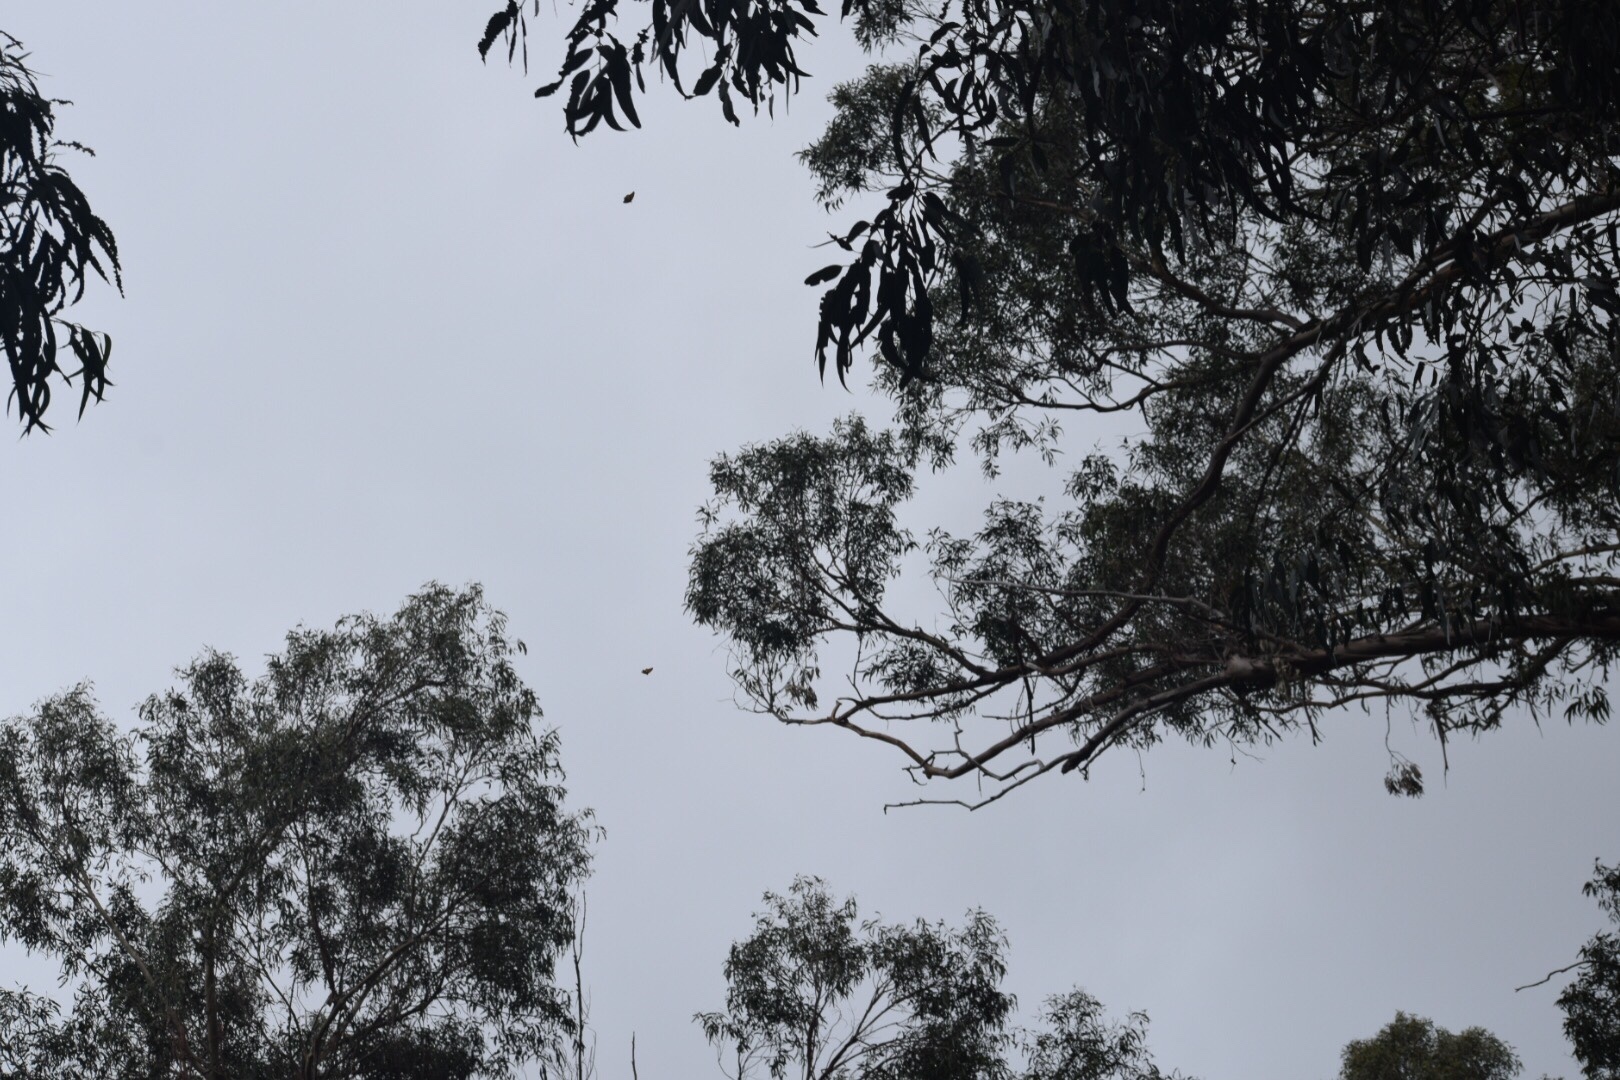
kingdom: Animalia
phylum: Arthropoda
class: Insecta
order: Lepidoptera
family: Nymphalidae
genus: Danaus
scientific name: Danaus plexippus
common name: Monarch
